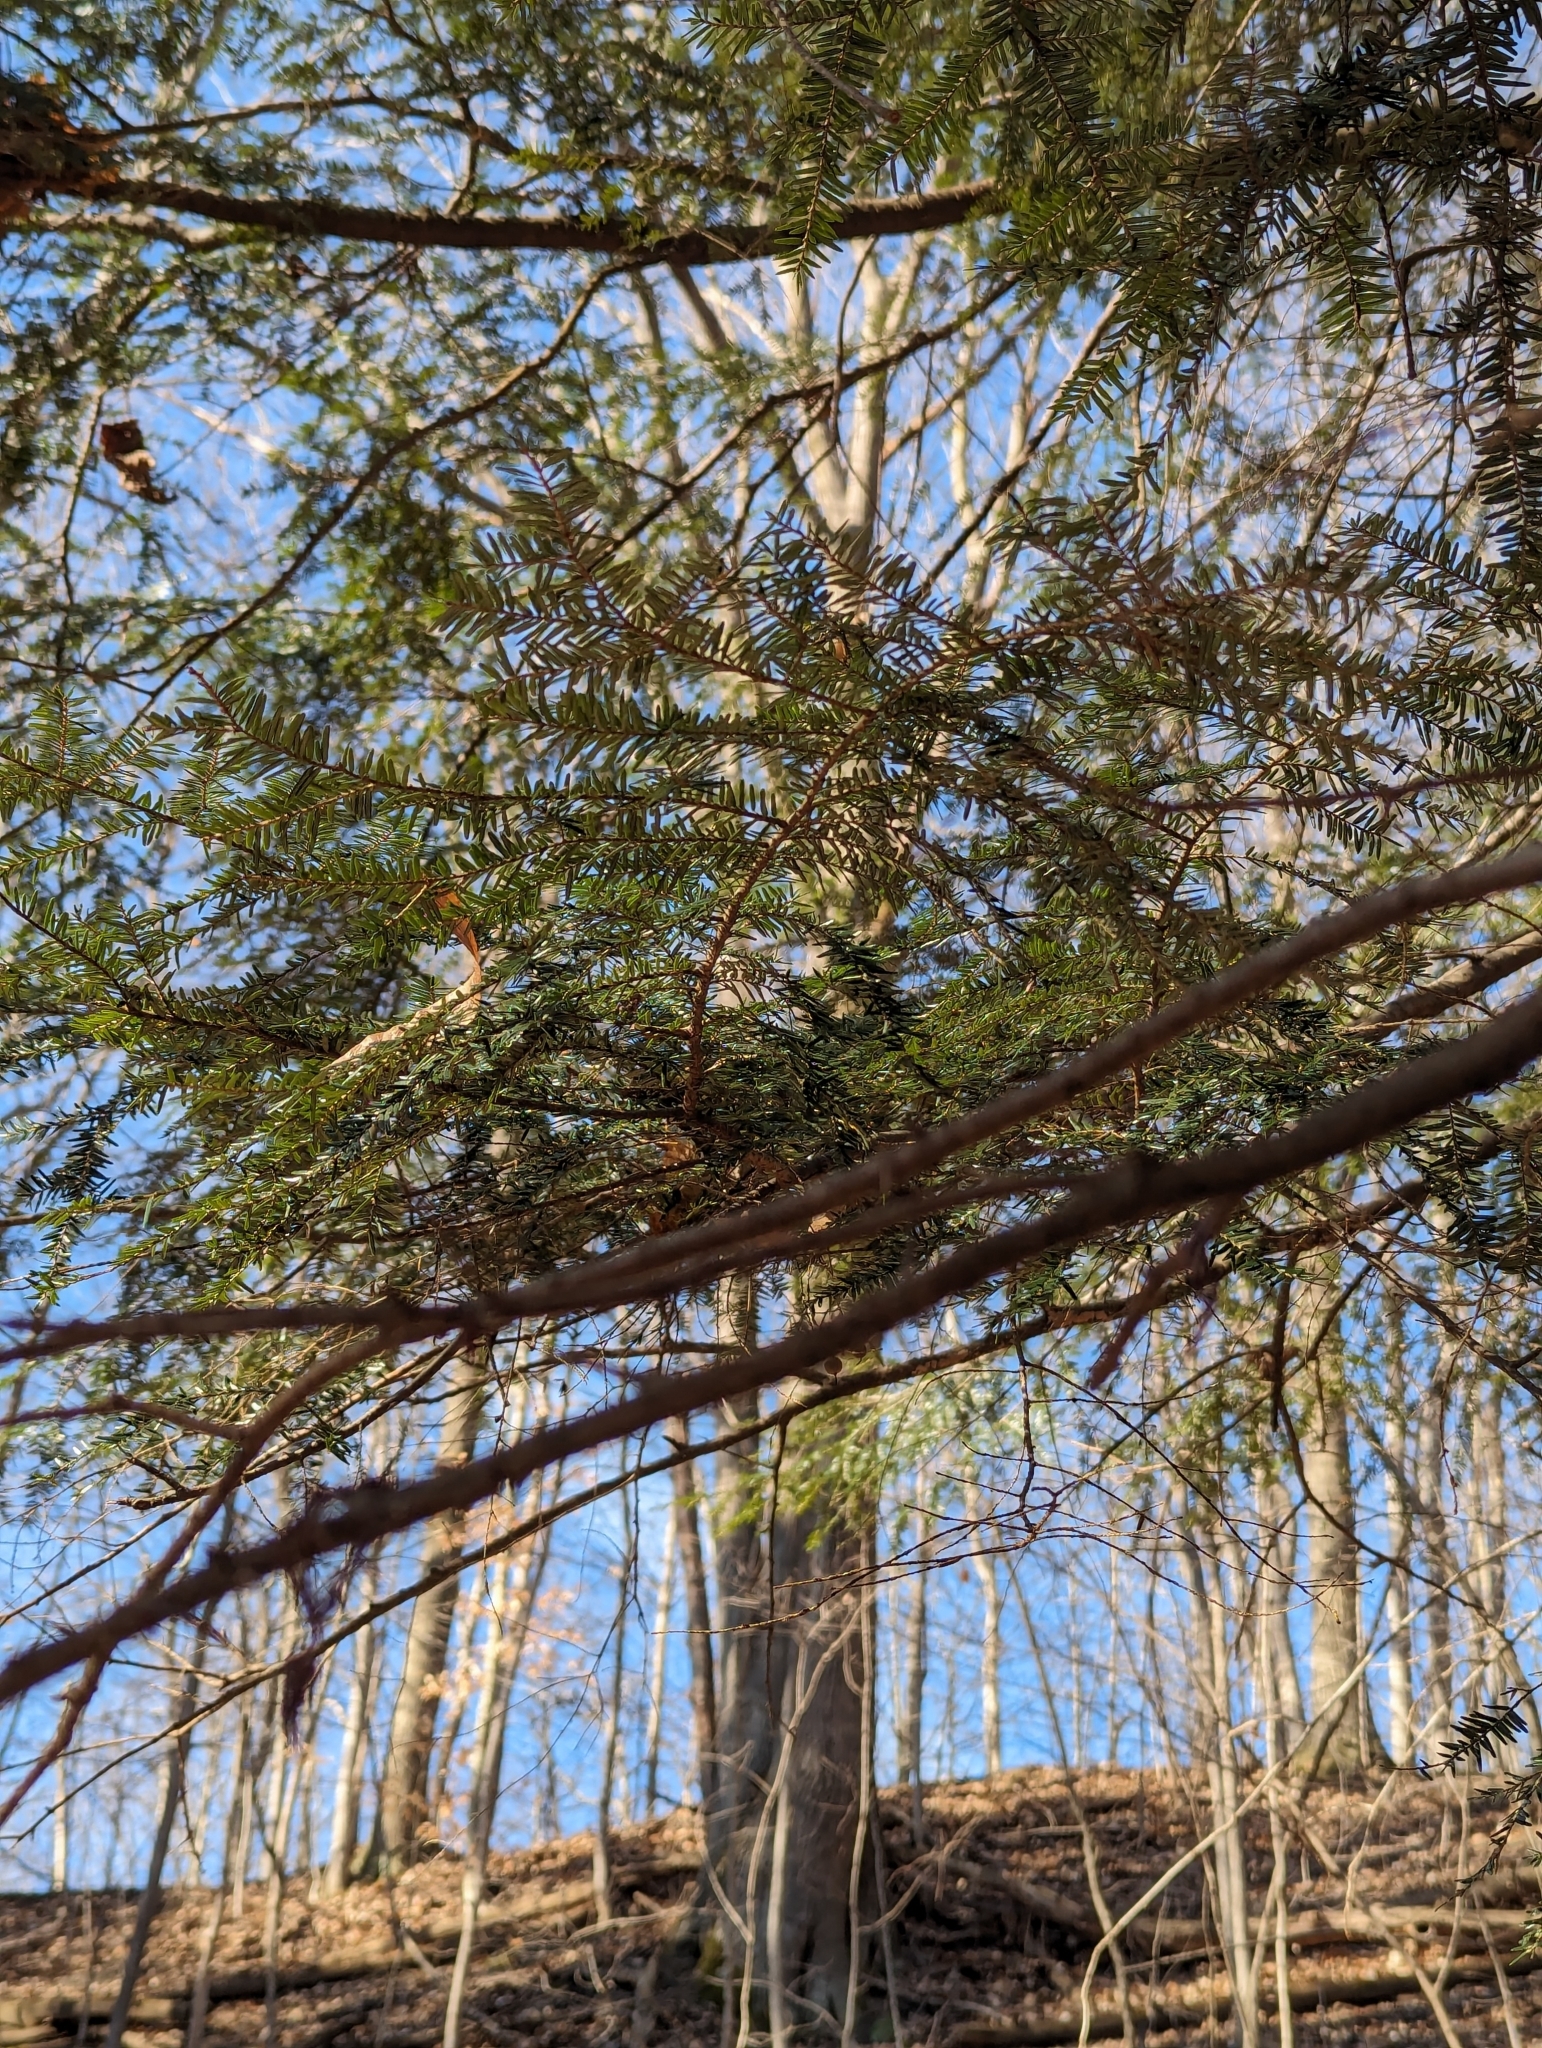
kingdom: Plantae
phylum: Tracheophyta
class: Pinopsida
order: Pinales
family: Pinaceae
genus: Tsuga
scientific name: Tsuga canadensis
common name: Eastern hemlock
